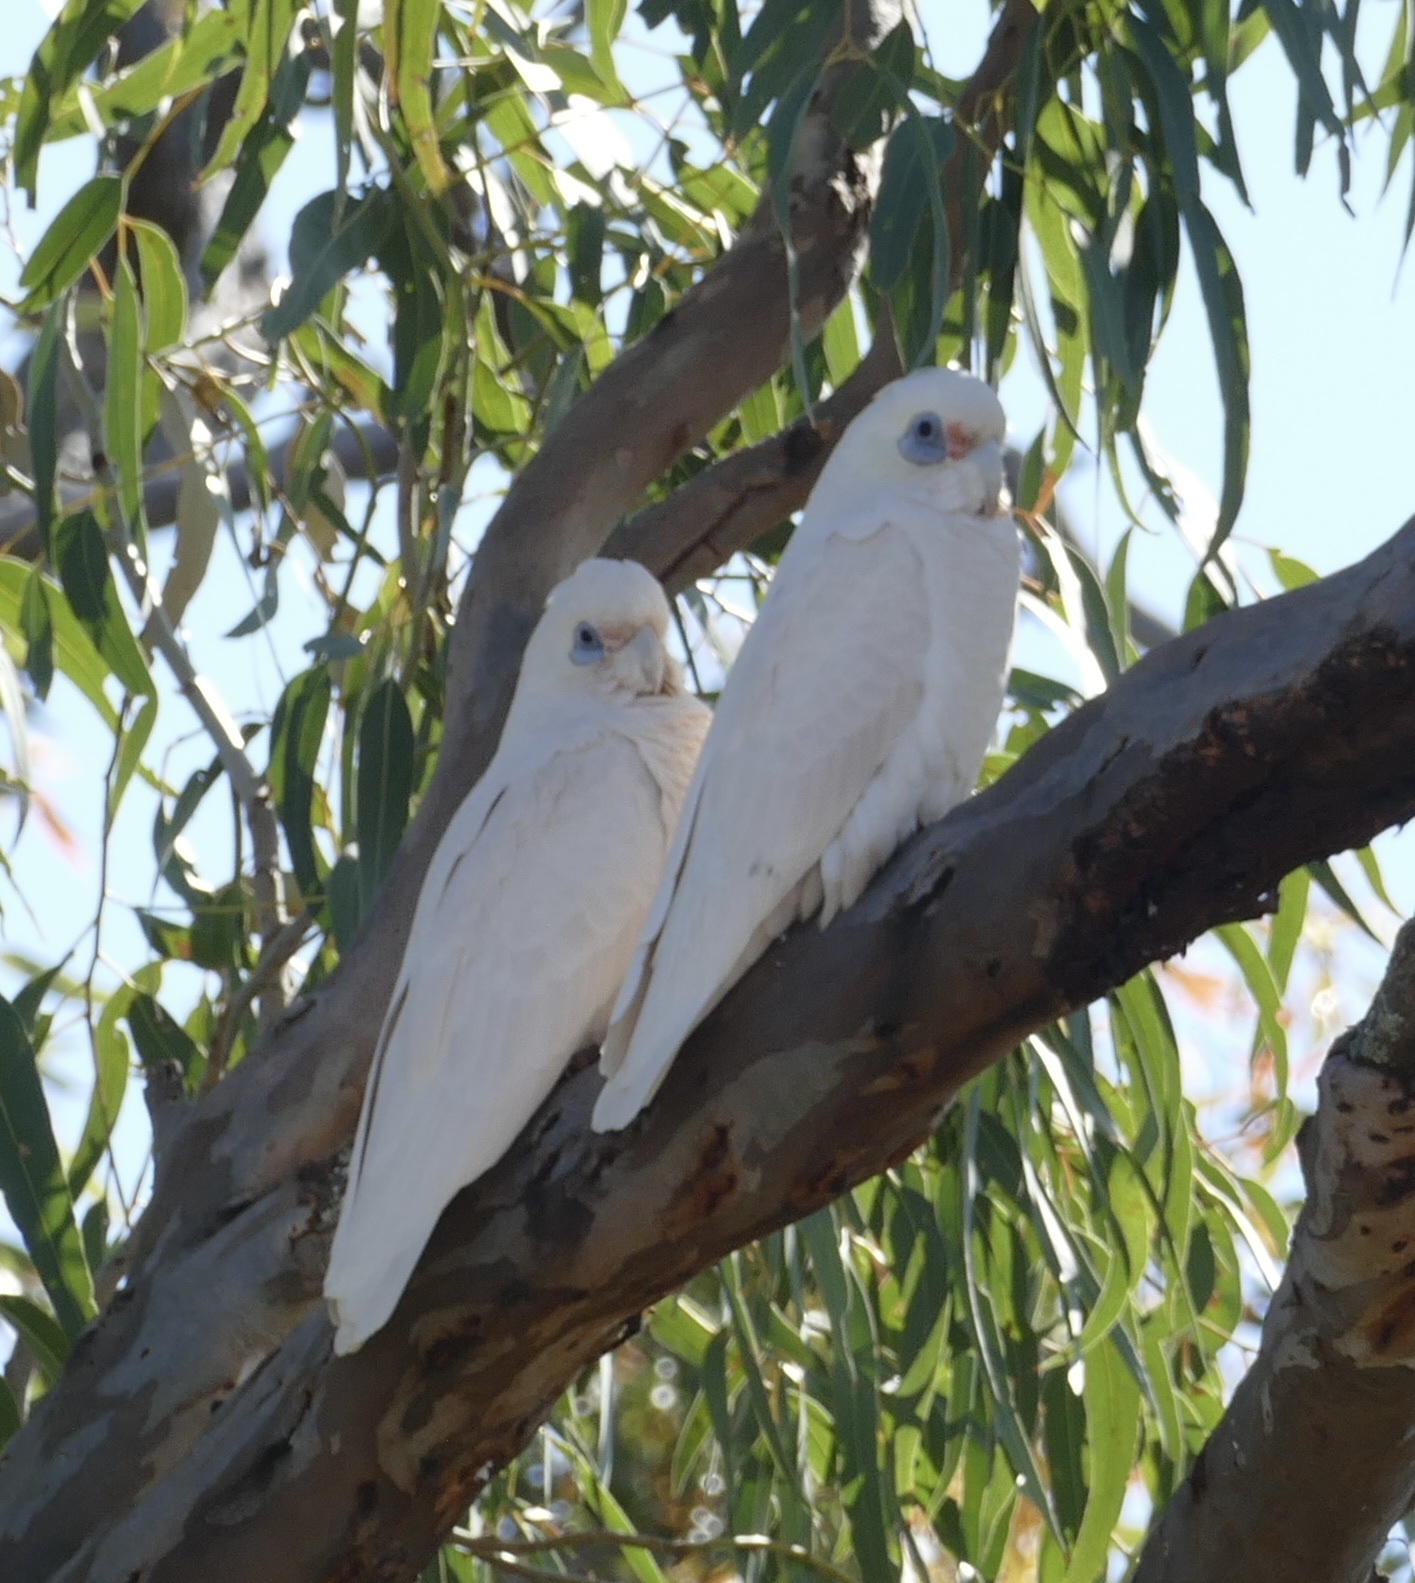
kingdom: Animalia
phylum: Chordata
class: Aves
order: Psittaciformes
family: Psittacidae
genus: Cacatua
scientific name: Cacatua sanguinea
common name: Little corella
